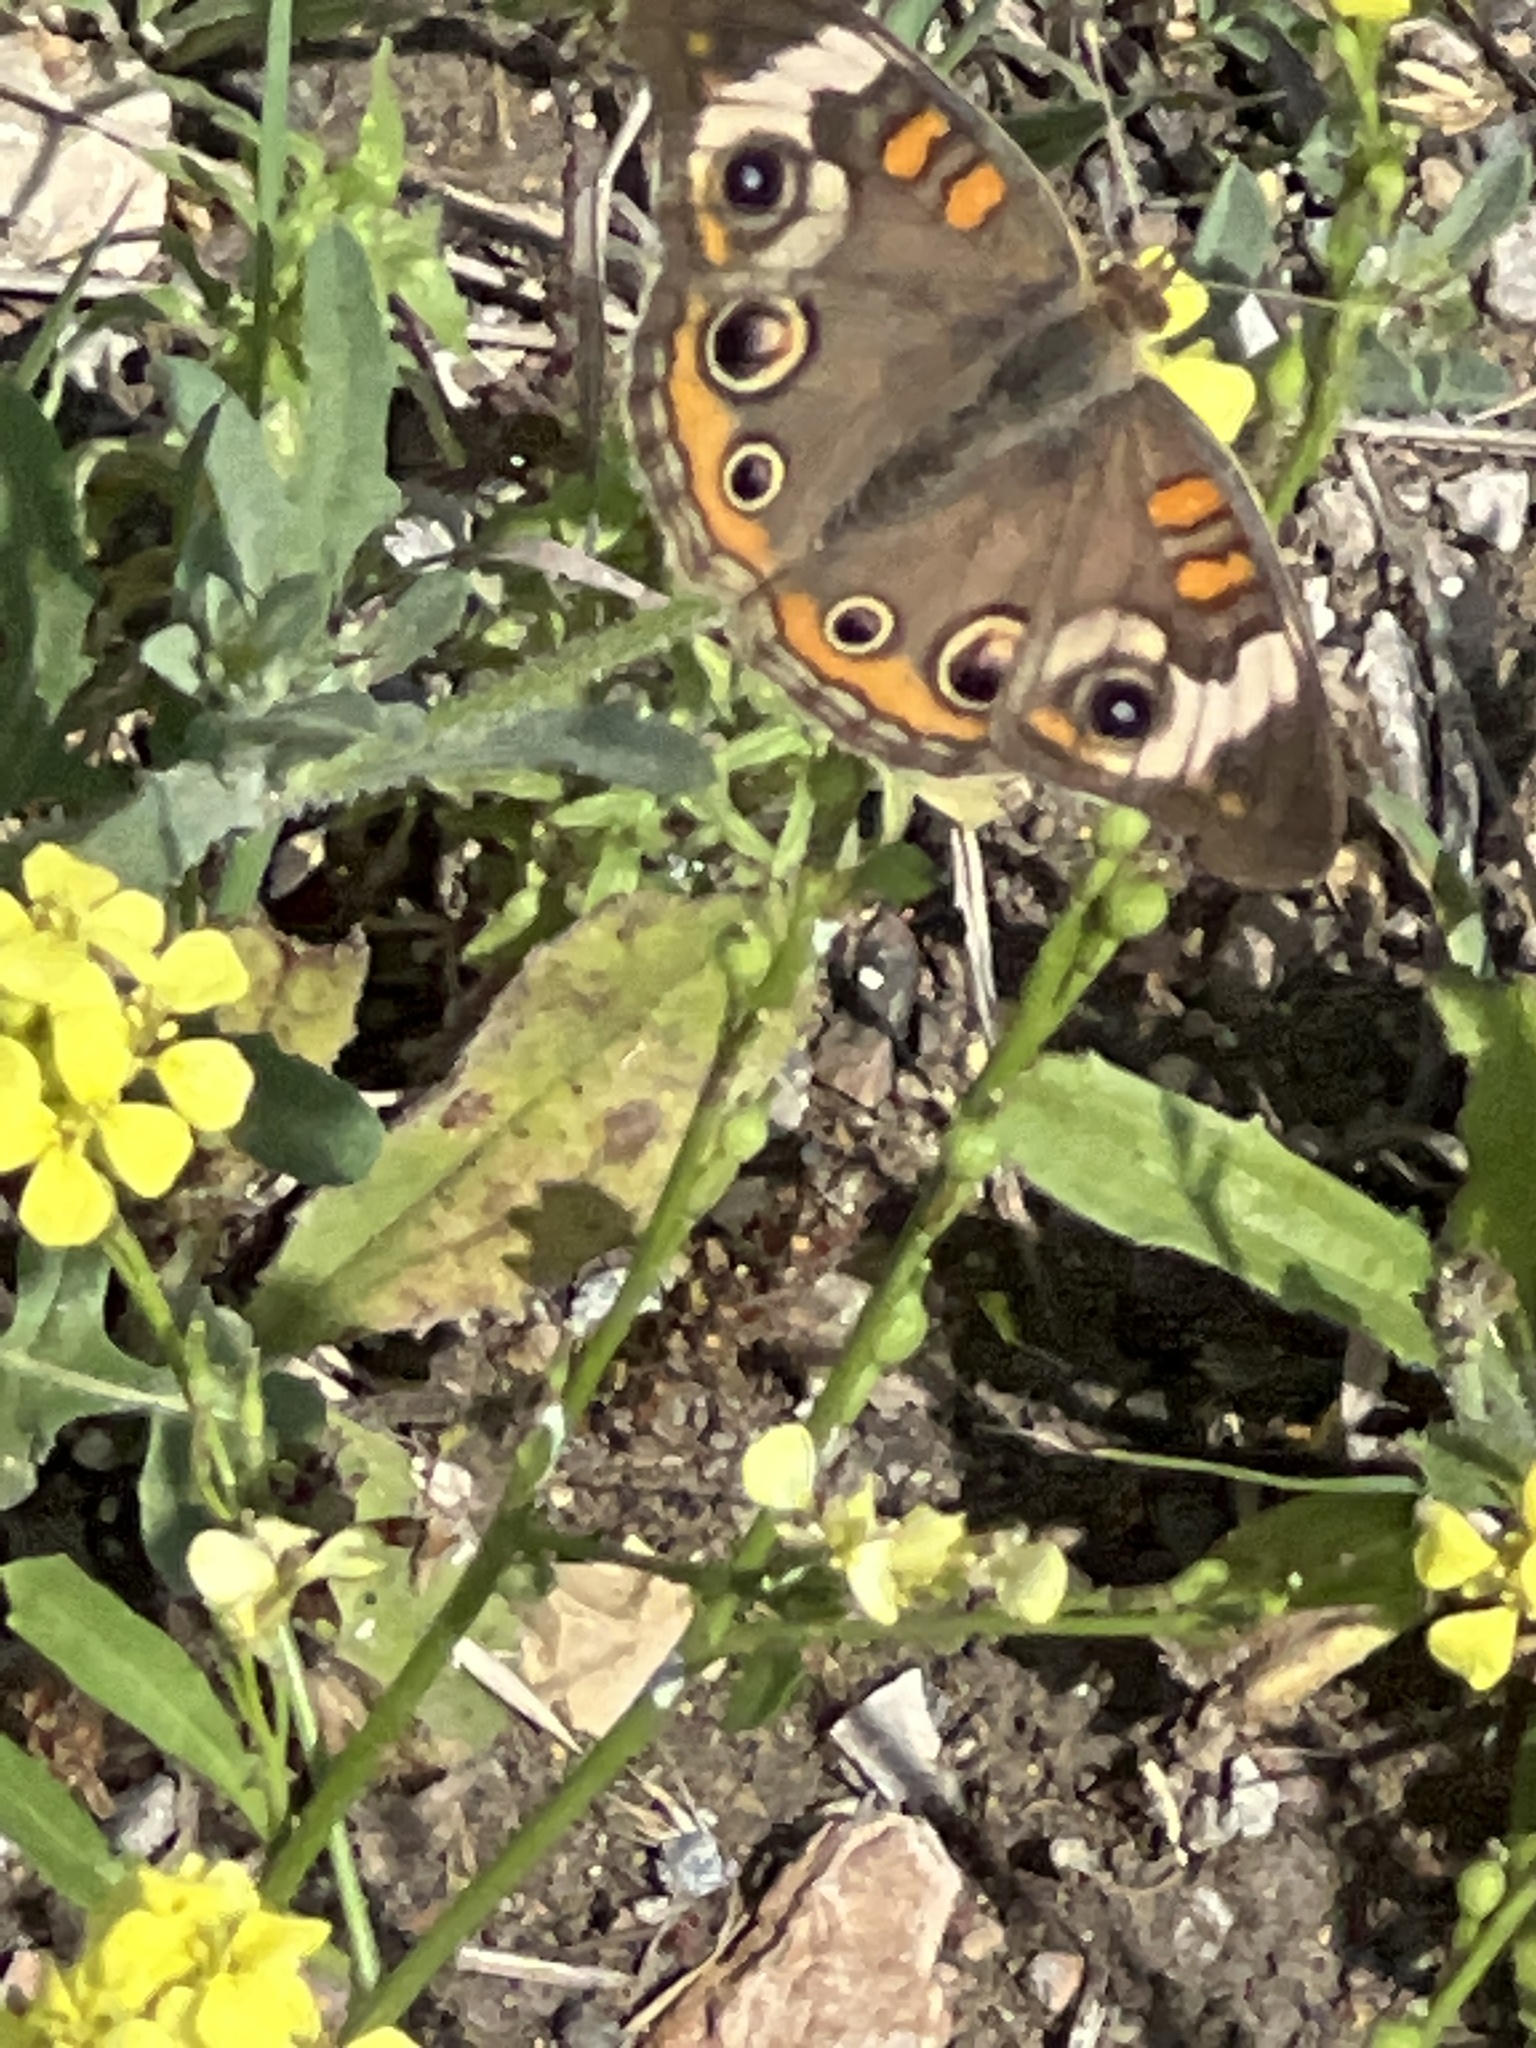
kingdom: Animalia
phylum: Arthropoda
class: Insecta
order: Lepidoptera
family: Nymphalidae
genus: Junonia
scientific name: Junonia coenia
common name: Common buckeye
